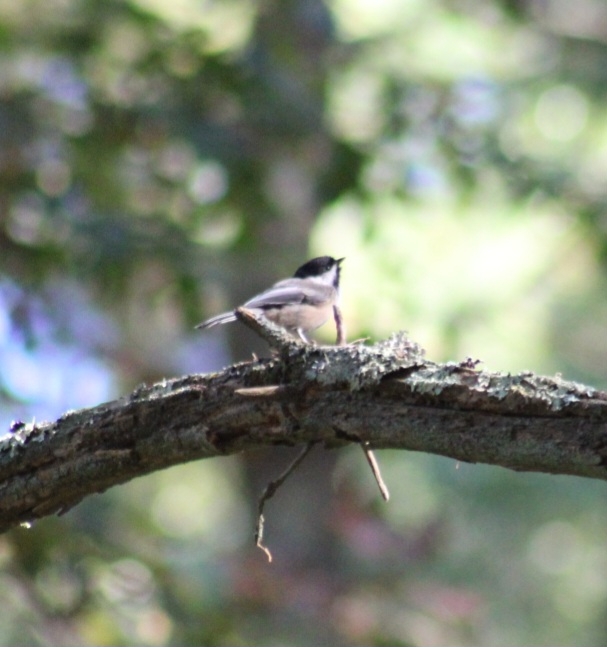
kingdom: Animalia
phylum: Chordata
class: Aves
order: Passeriformes
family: Paridae
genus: Poecile
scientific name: Poecile atricapillus
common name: Black-capped chickadee
